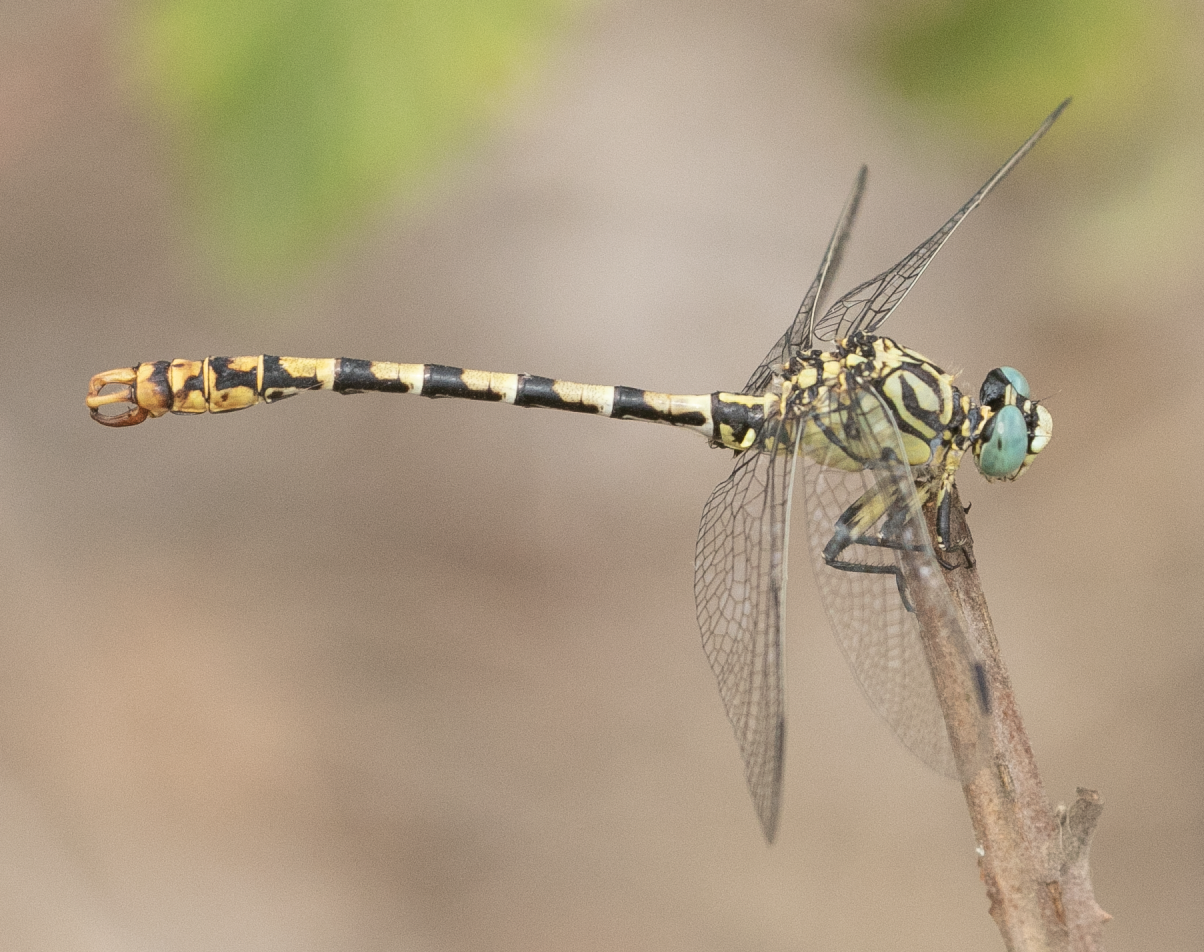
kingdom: Animalia
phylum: Arthropoda
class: Insecta
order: Odonata
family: Gomphidae
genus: Onychogomphus
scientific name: Onychogomphus forcipatus
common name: Small pincertail
